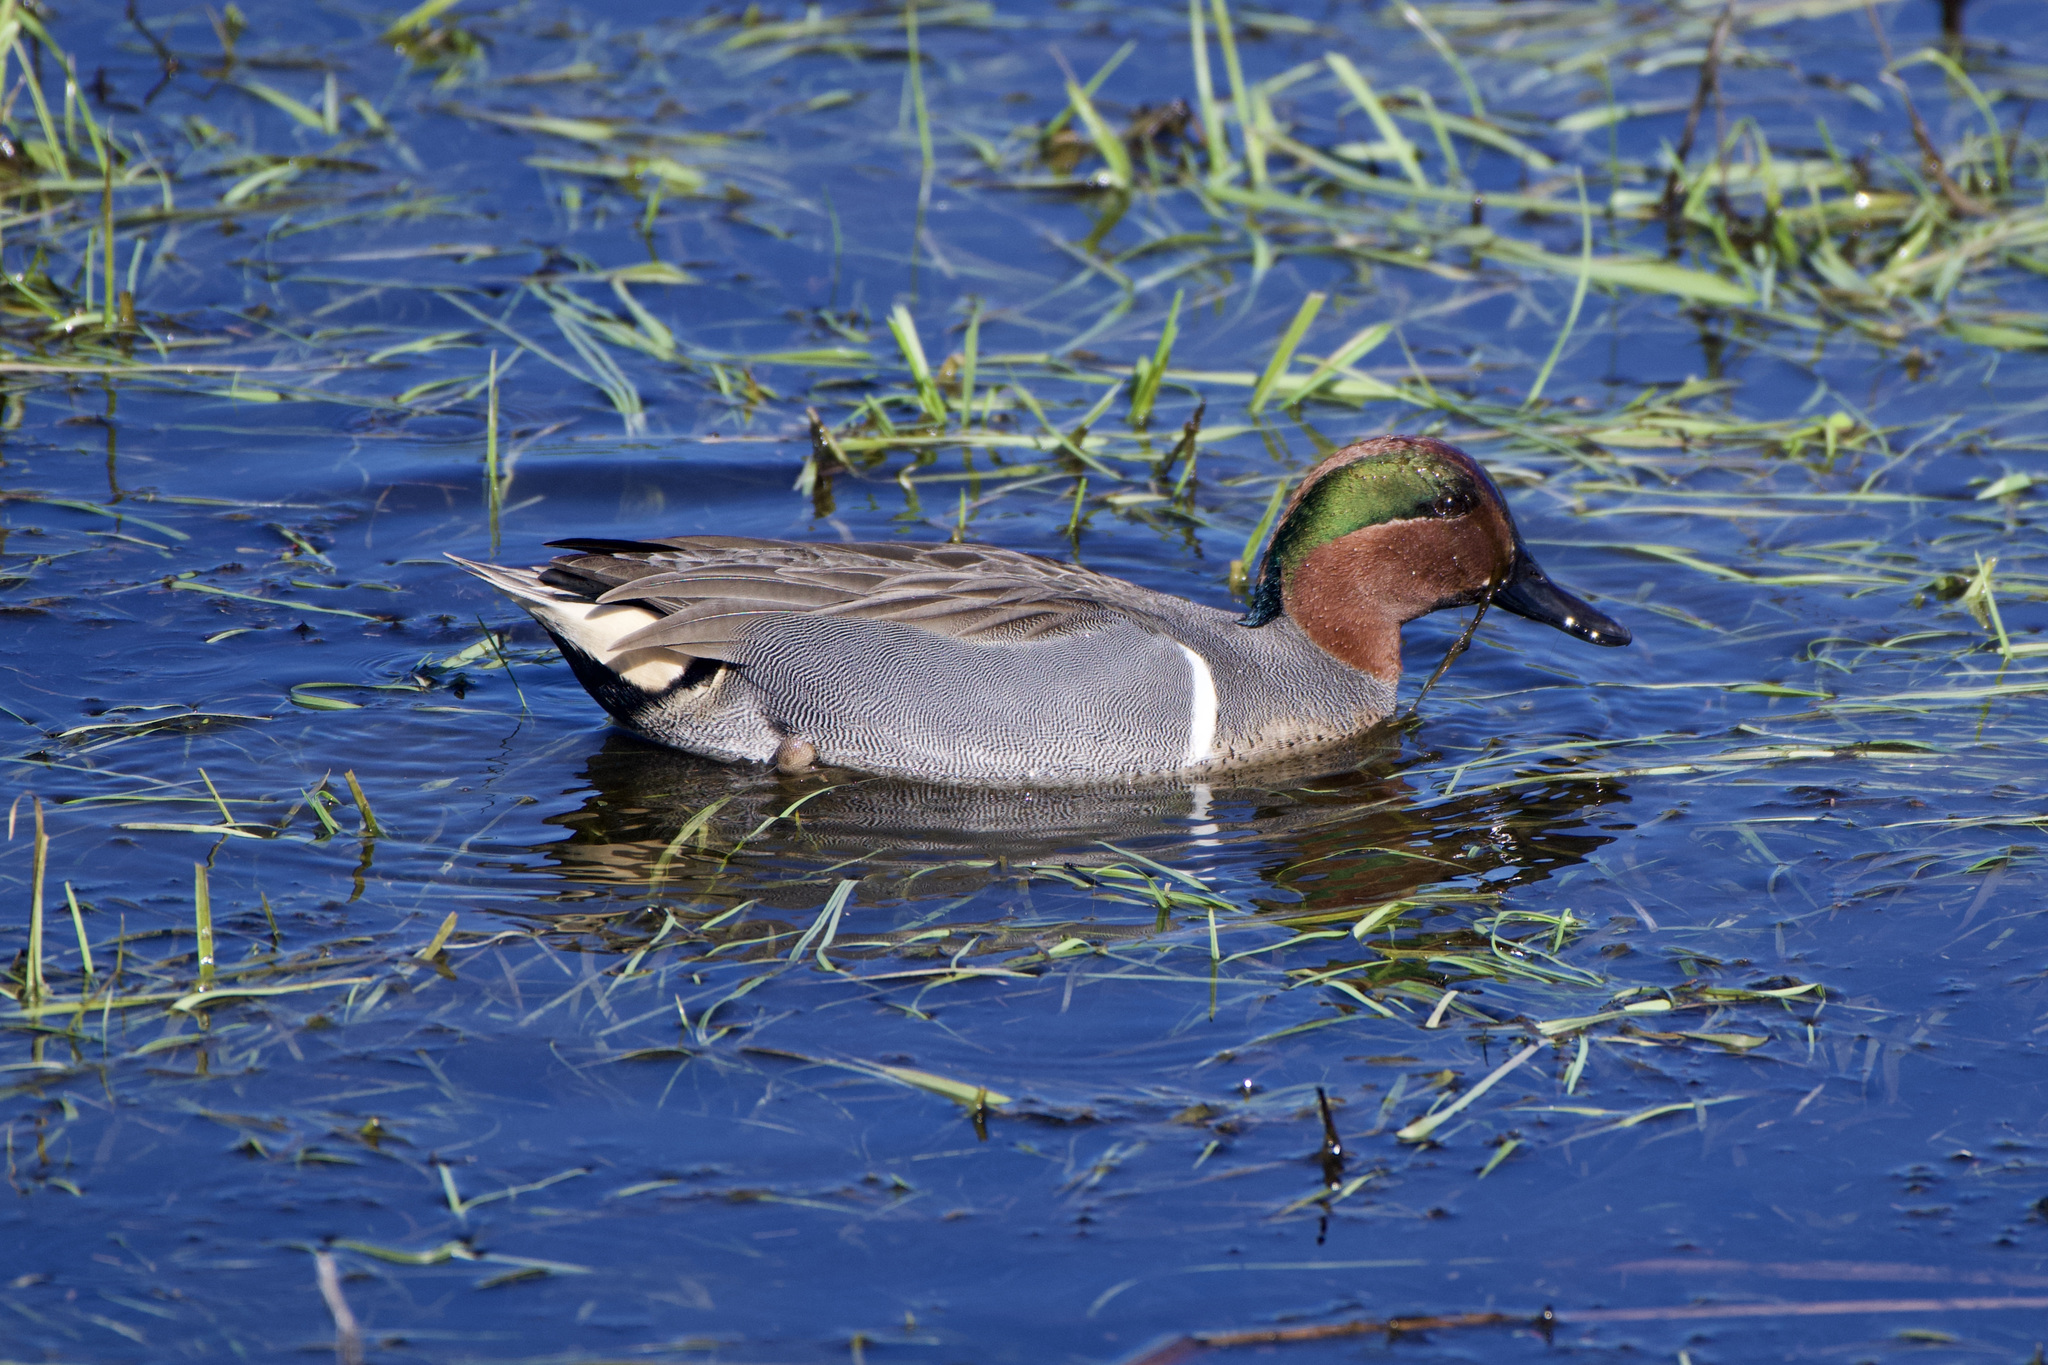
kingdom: Animalia
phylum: Chordata
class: Aves
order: Anseriformes
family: Anatidae
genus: Anas
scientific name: Anas carolinensis
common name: Green-winged teal
